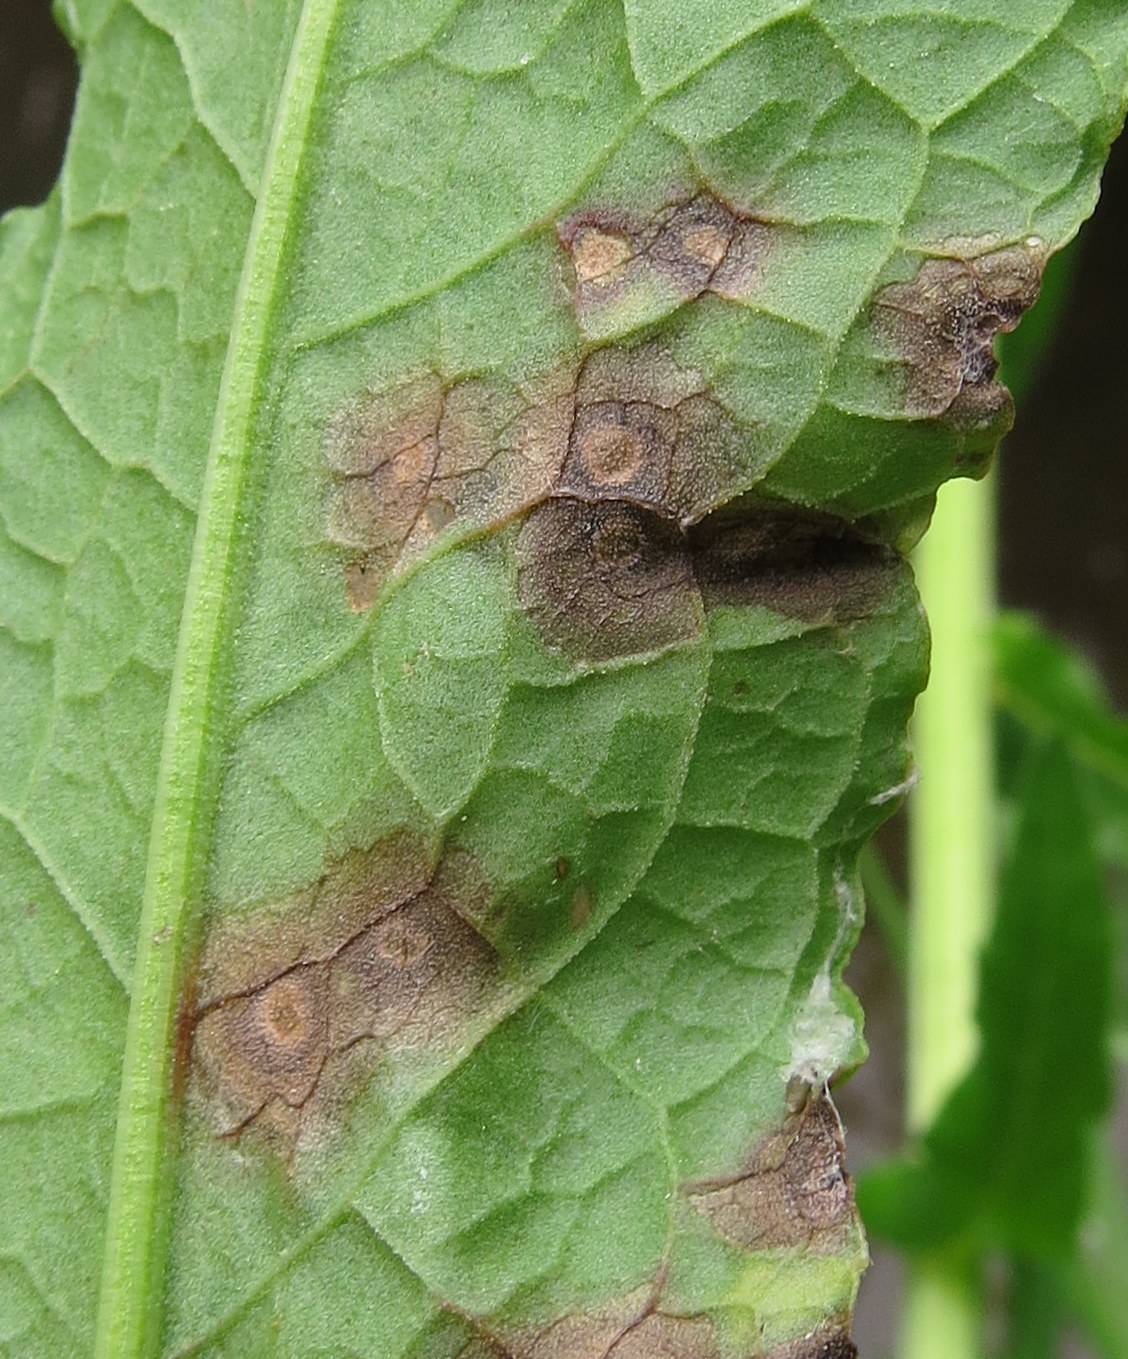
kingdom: Fungi
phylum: Ascomycota
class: Dothideomycetes
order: Mycosphaerellales
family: Mycosphaerellaceae
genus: Ramularia
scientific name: Ramularia rubella
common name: Red dock spot
